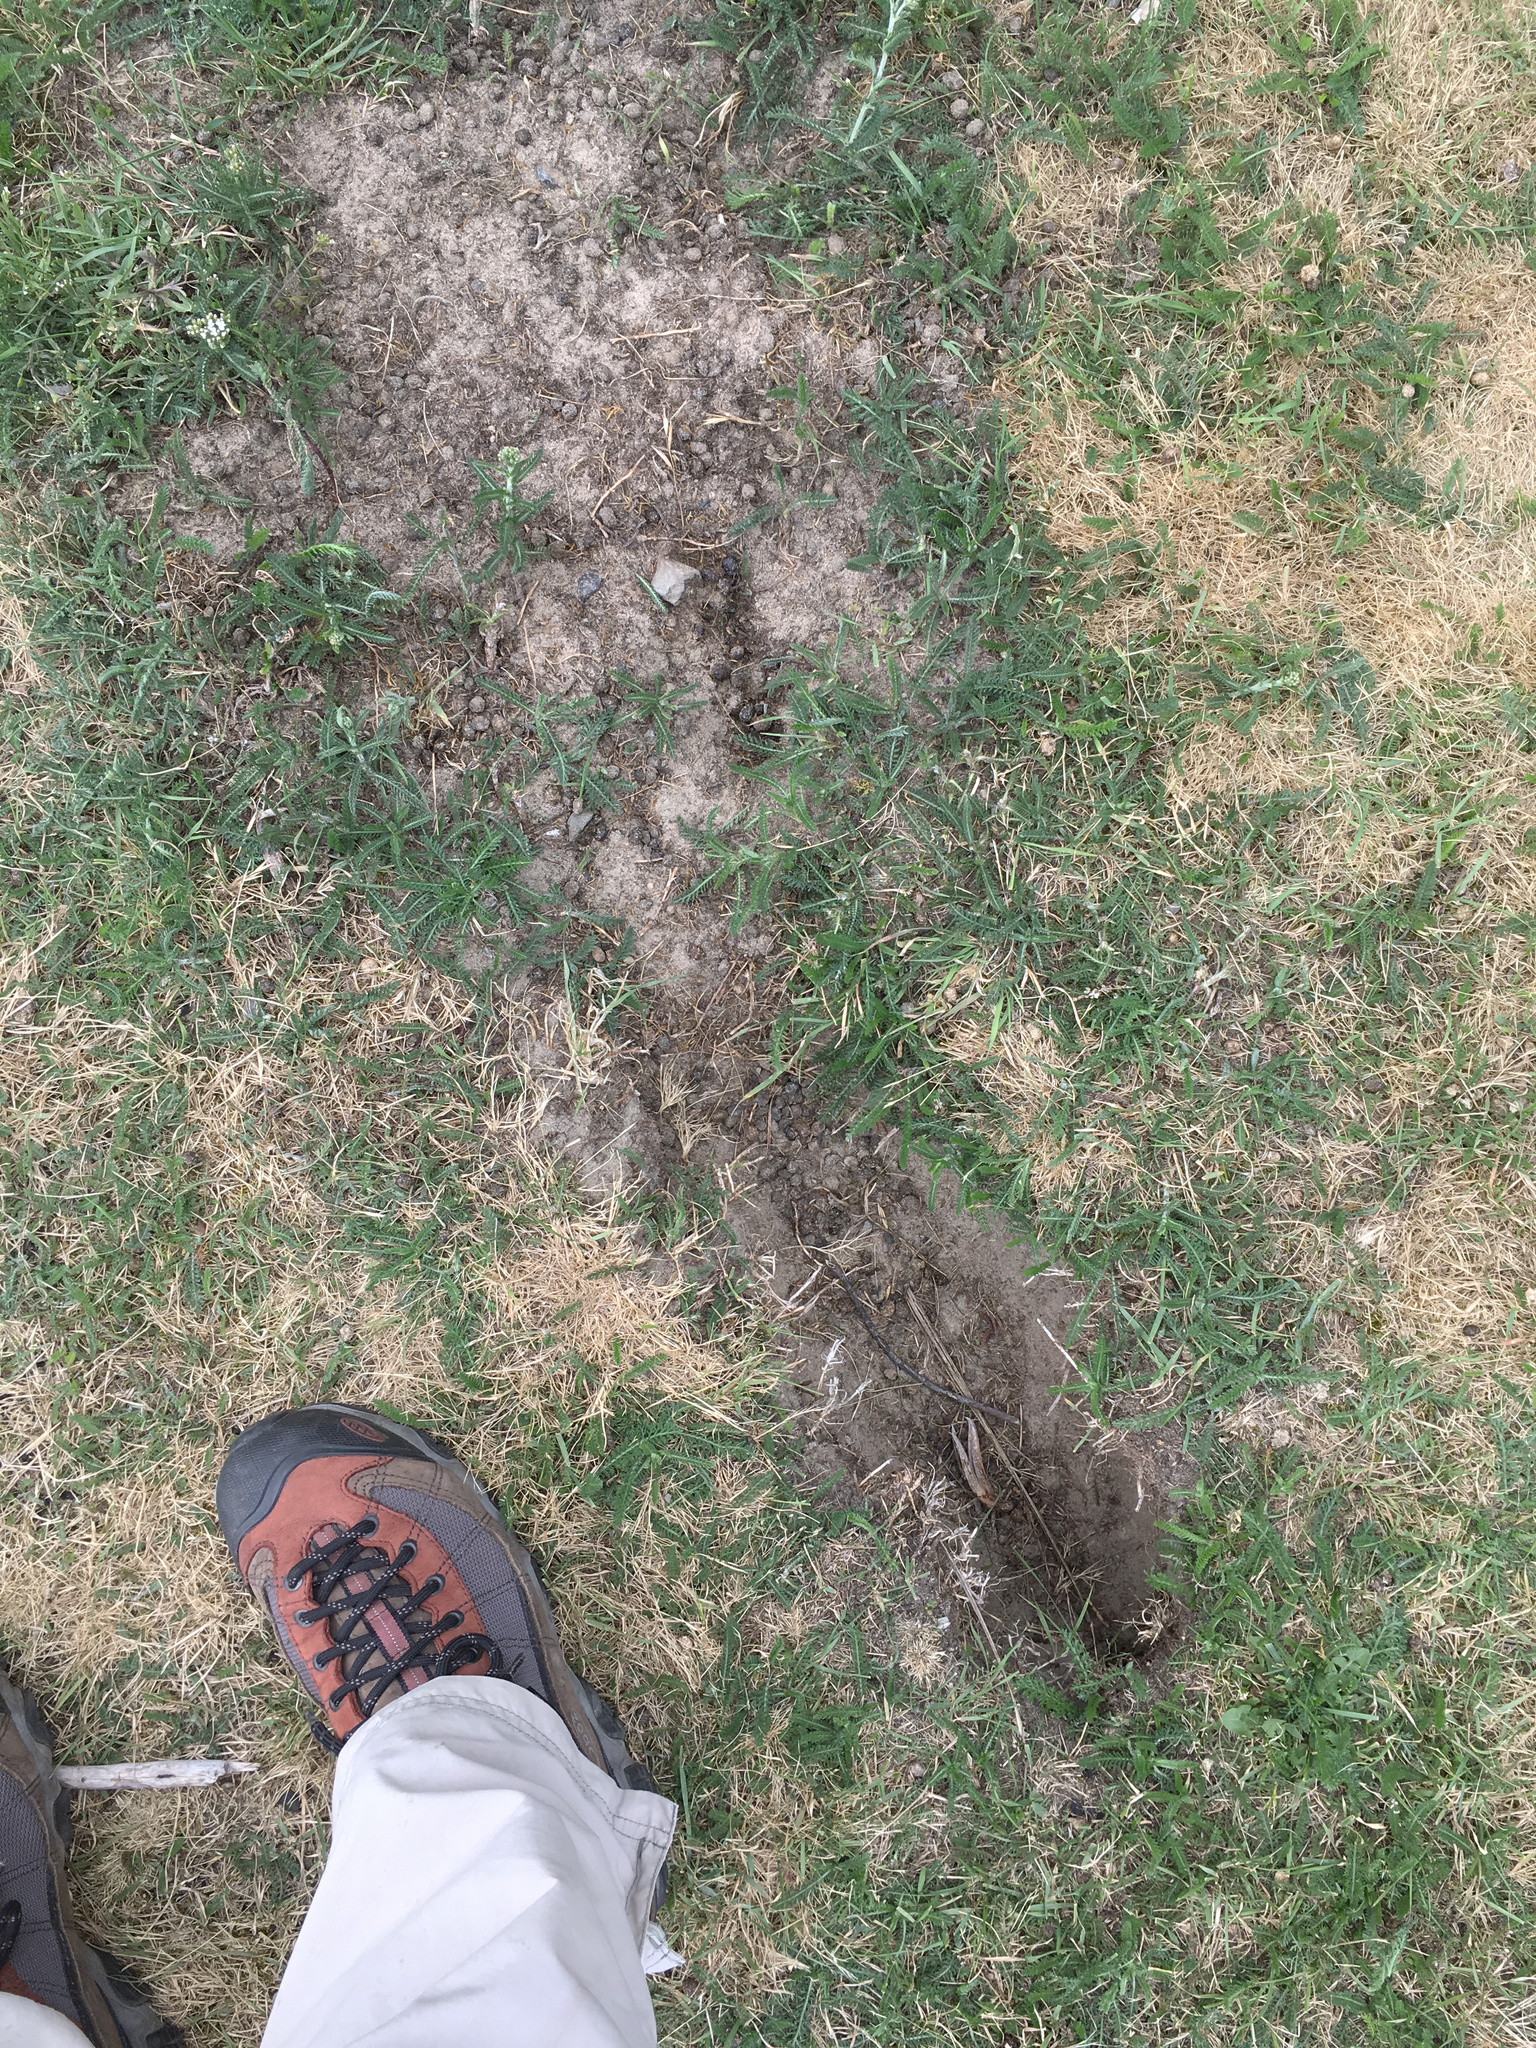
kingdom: Animalia
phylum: Chordata
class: Mammalia
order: Lagomorpha
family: Leporidae
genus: Oryctolagus
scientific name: Oryctolagus cuniculus
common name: European rabbit
